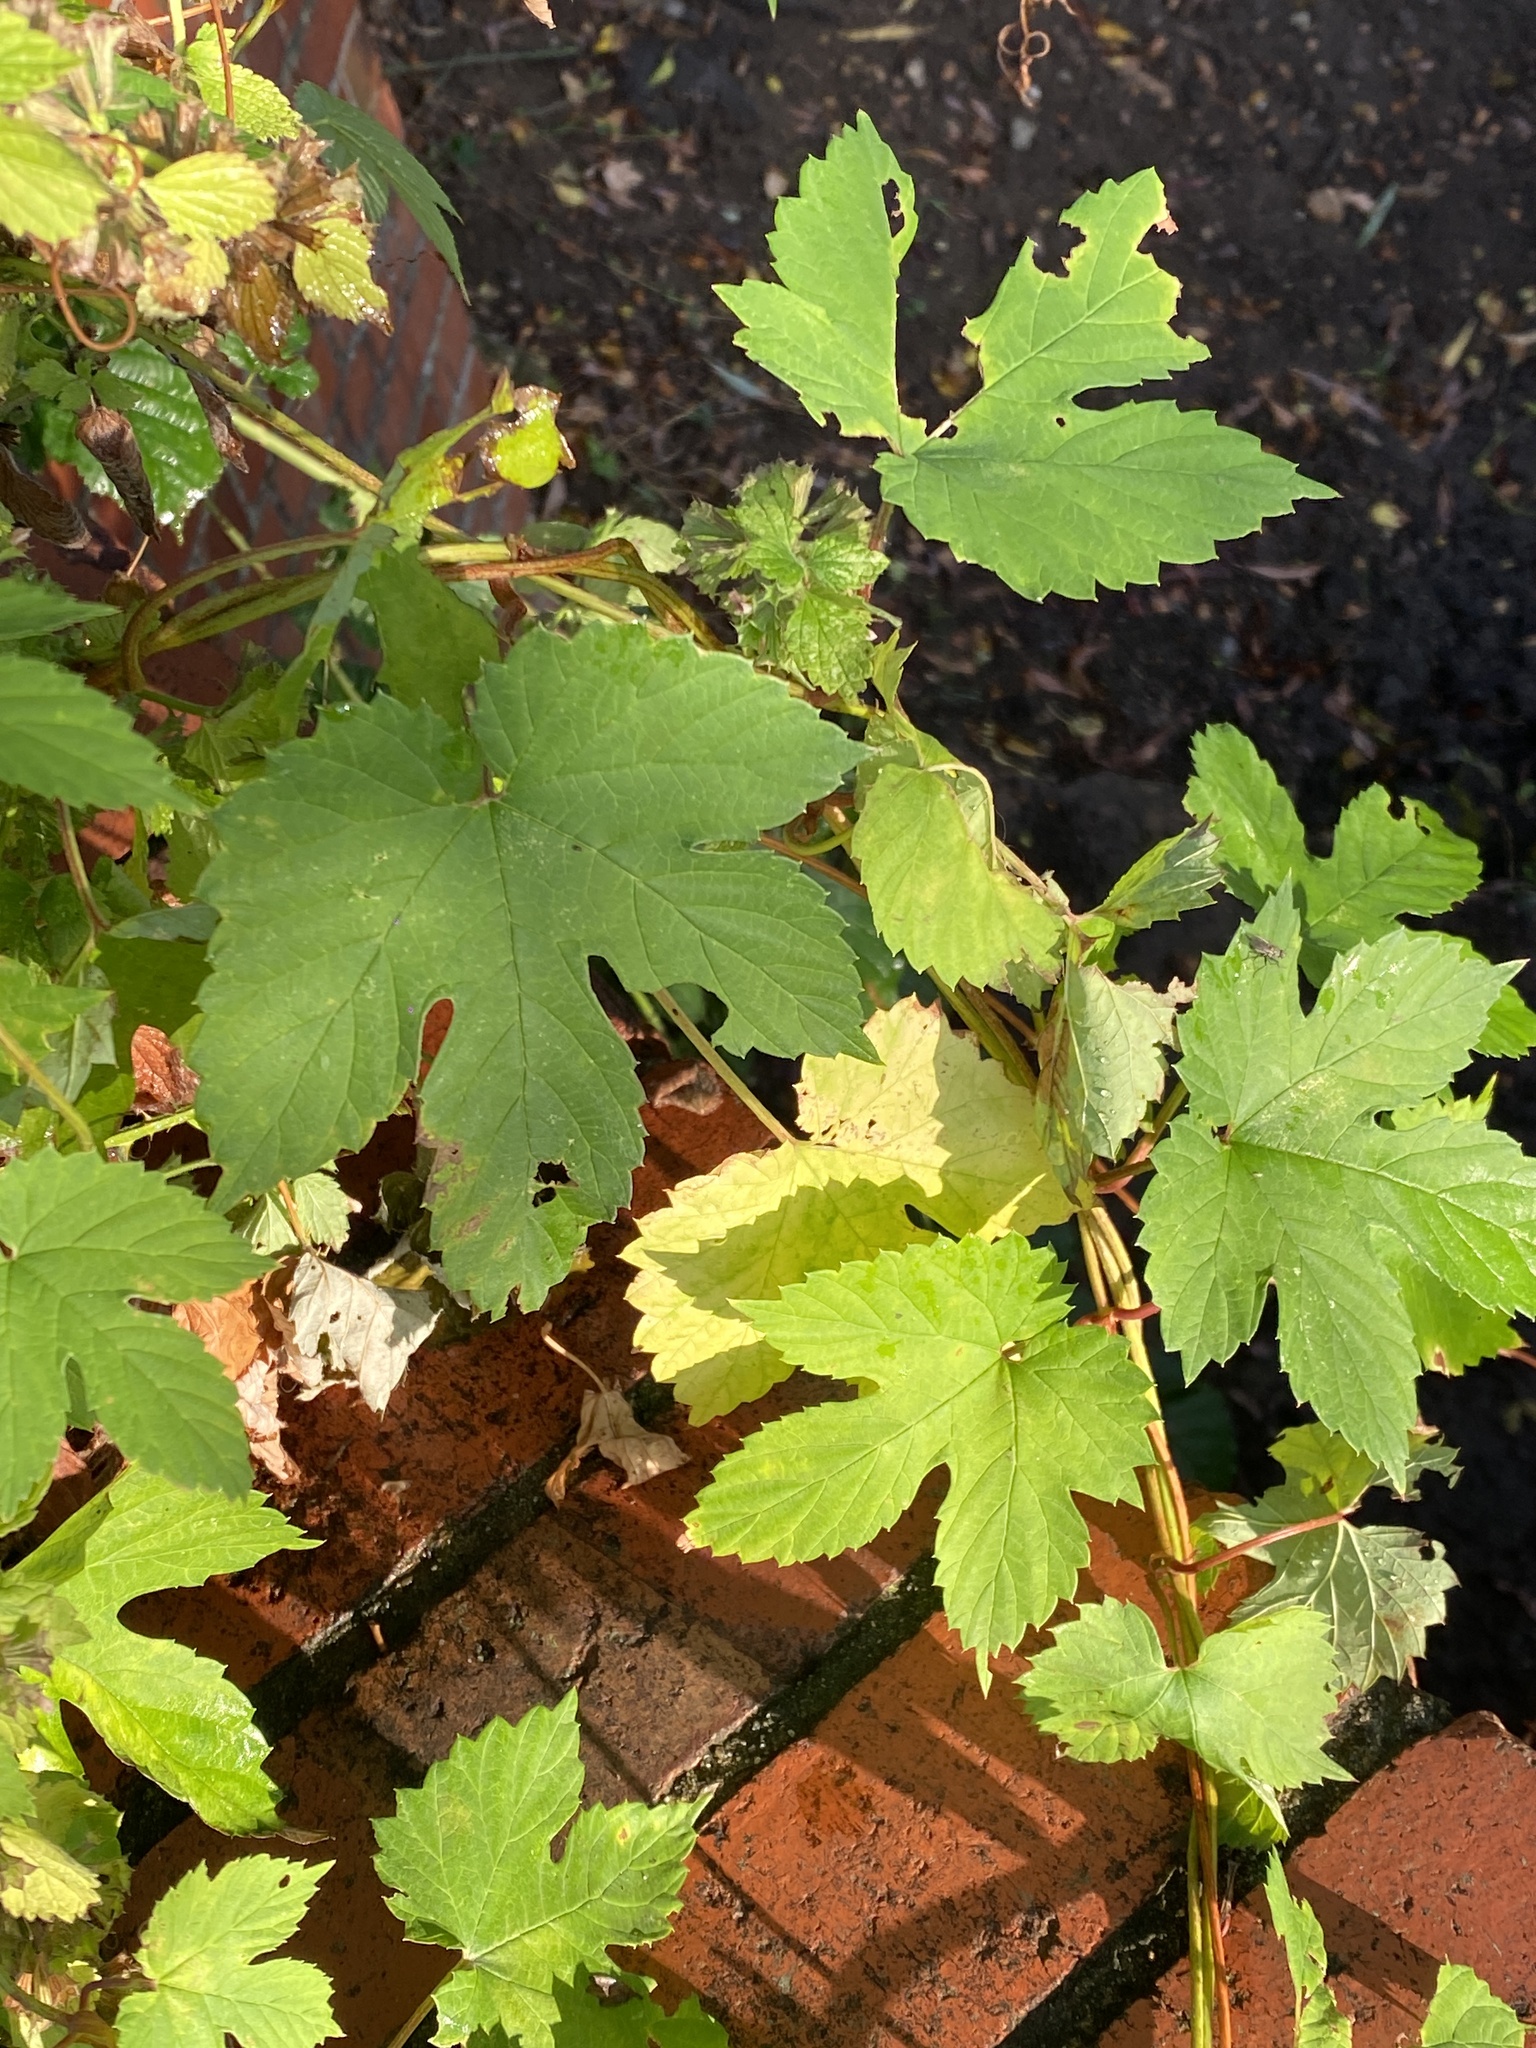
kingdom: Plantae
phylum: Tracheophyta
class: Magnoliopsida
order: Rosales
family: Cannabaceae
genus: Humulus
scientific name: Humulus lupulus
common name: Hop
